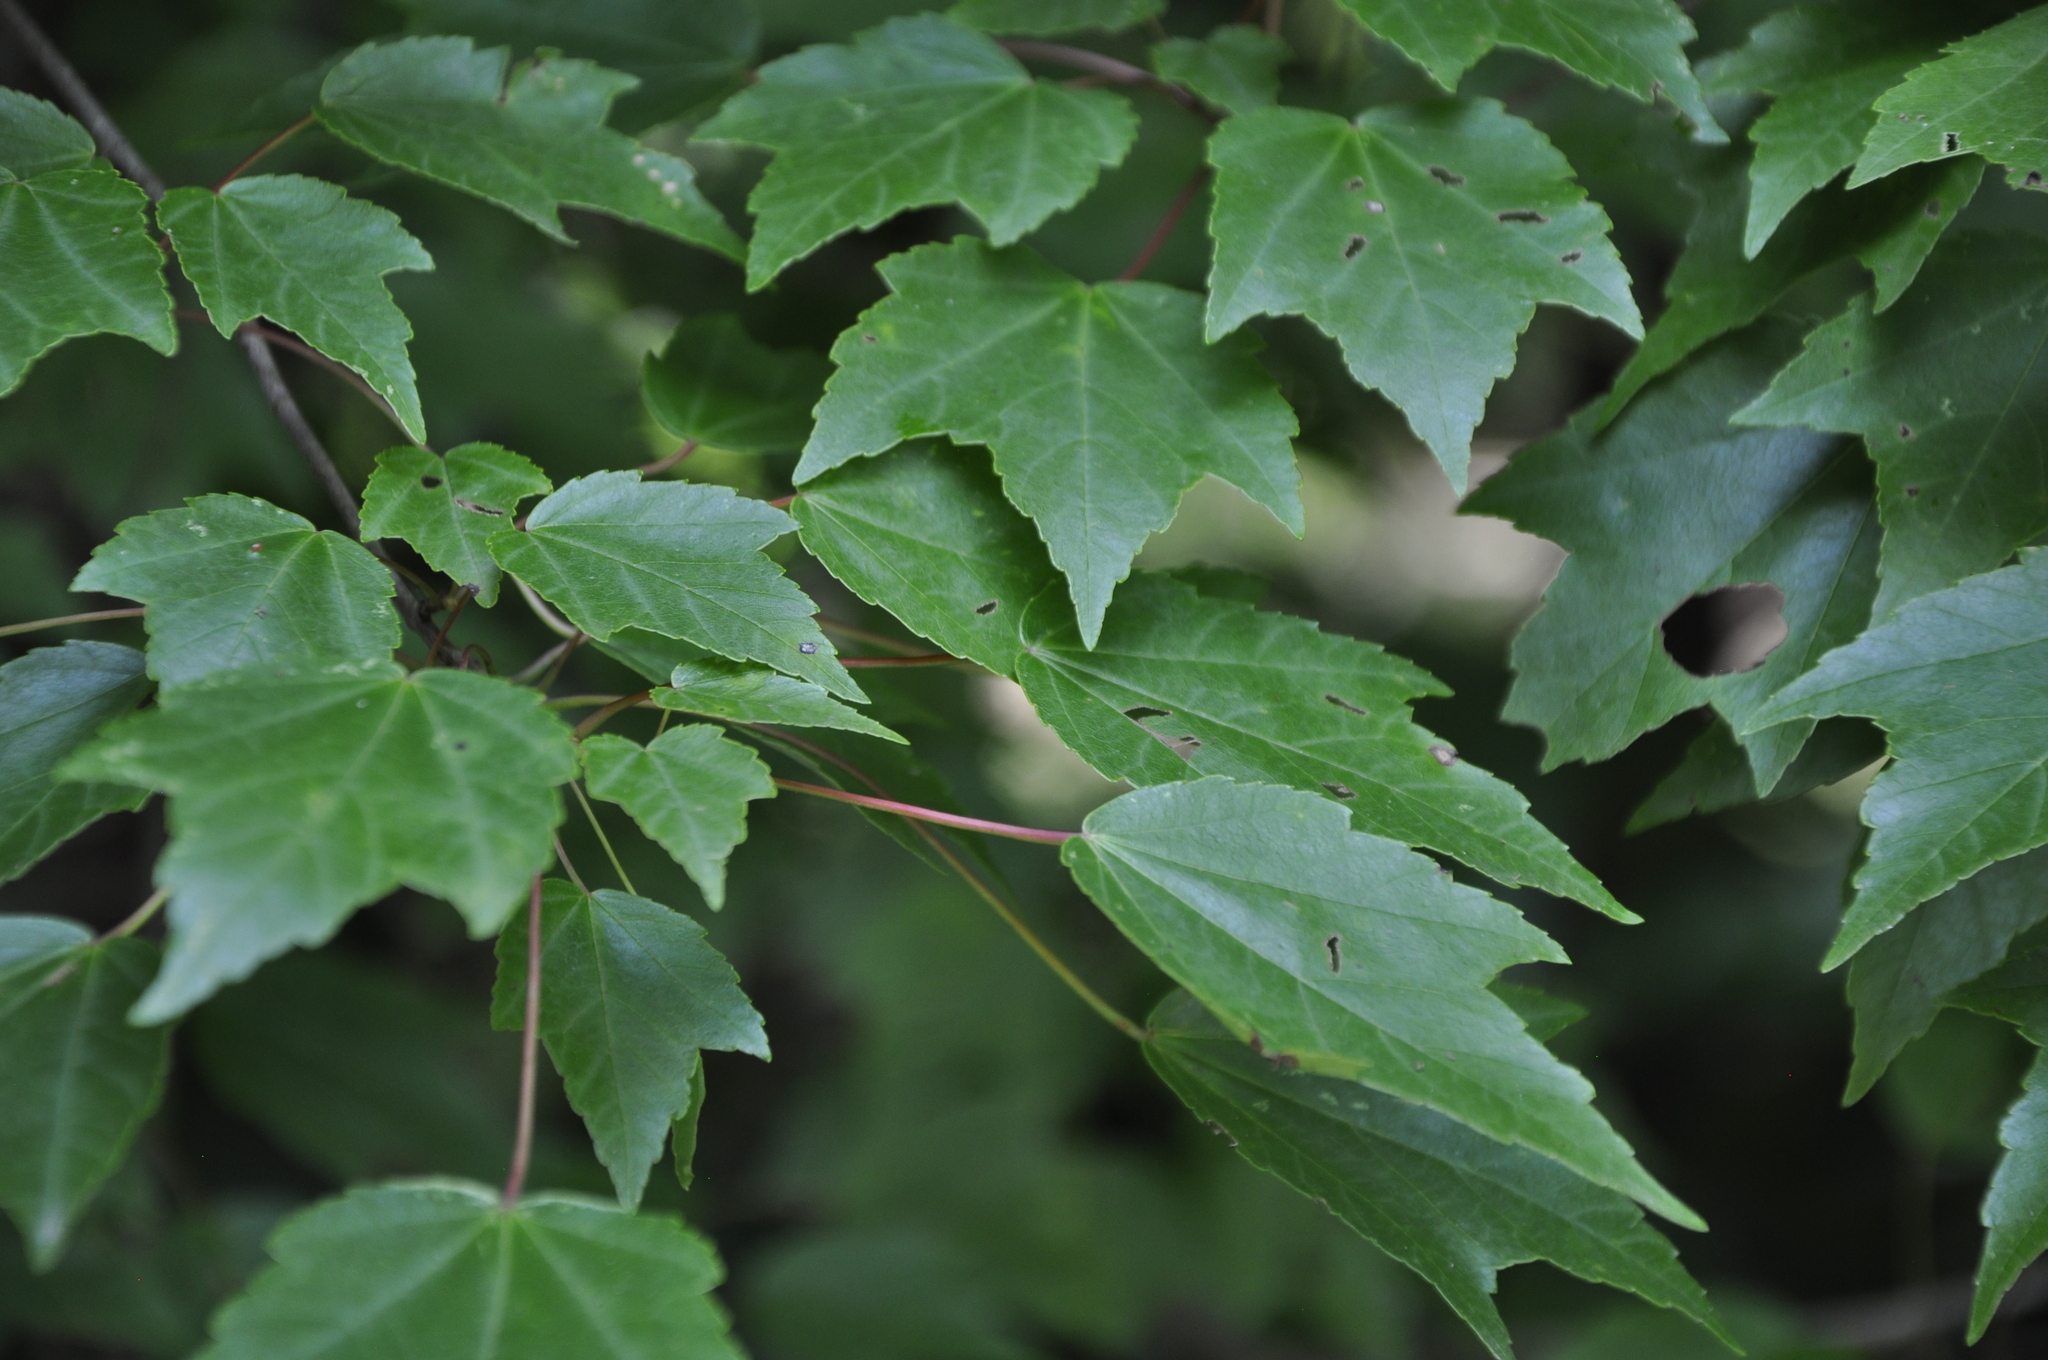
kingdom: Plantae
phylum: Tracheophyta
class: Magnoliopsida
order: Sapindales
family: Sapindaceae
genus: Acer
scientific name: Acer rubrum
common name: Red maple
